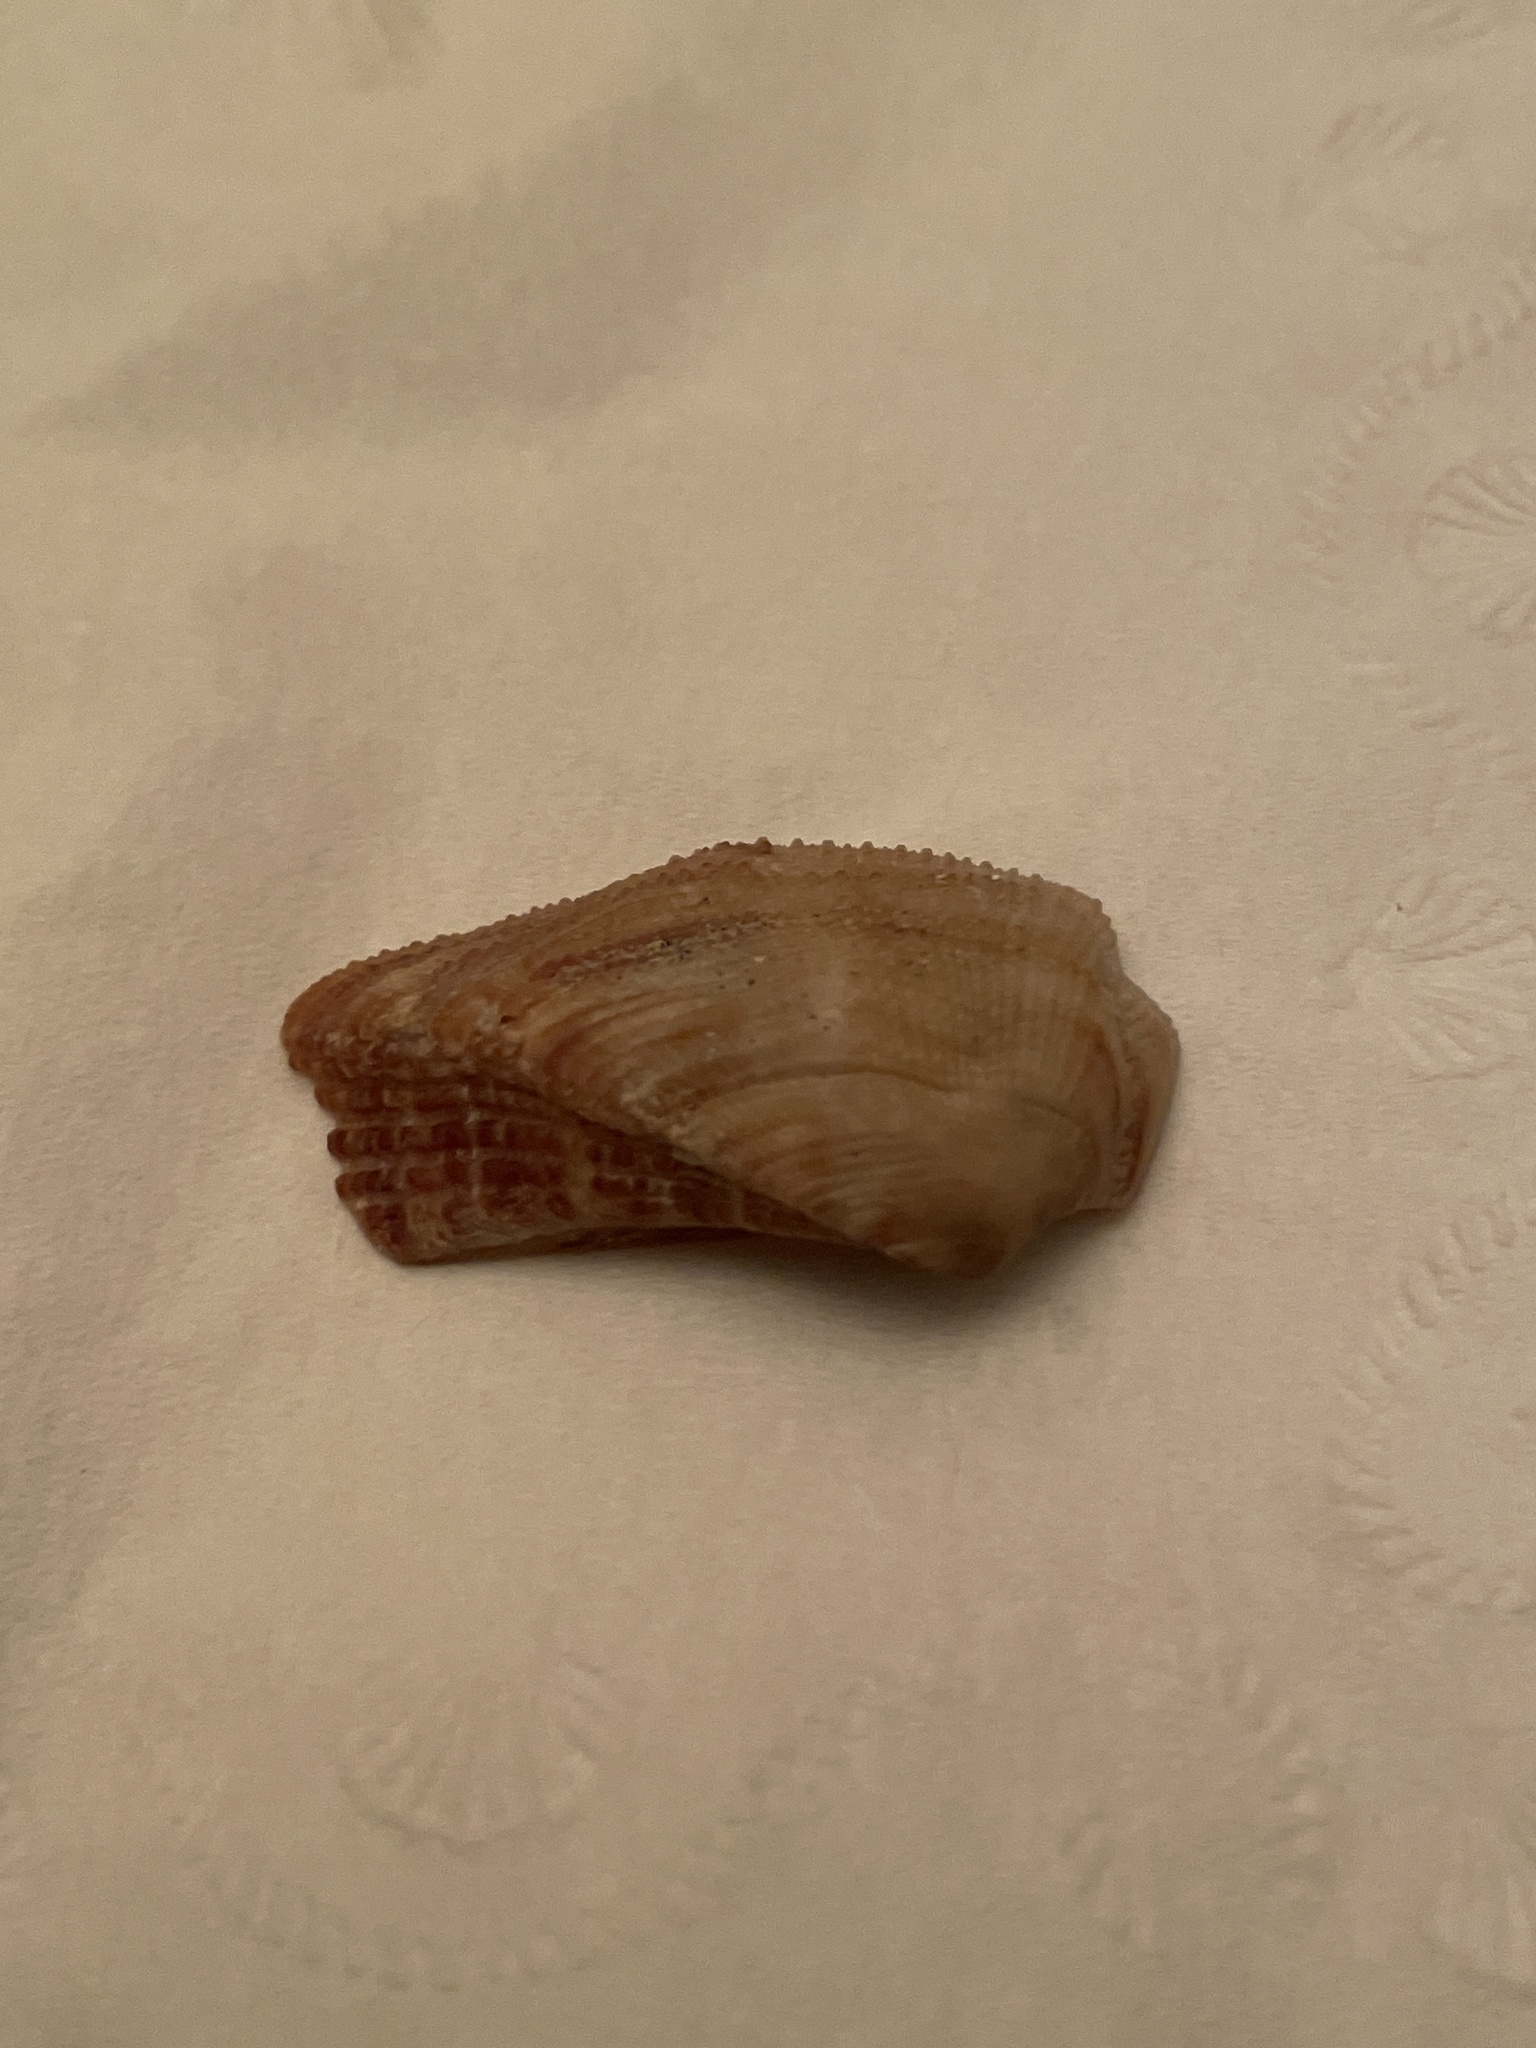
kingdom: Animalia
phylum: Mollusca
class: Bivalvia
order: Arcida
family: Arcidae
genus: Lamarcka
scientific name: Lamarcka imbricata
